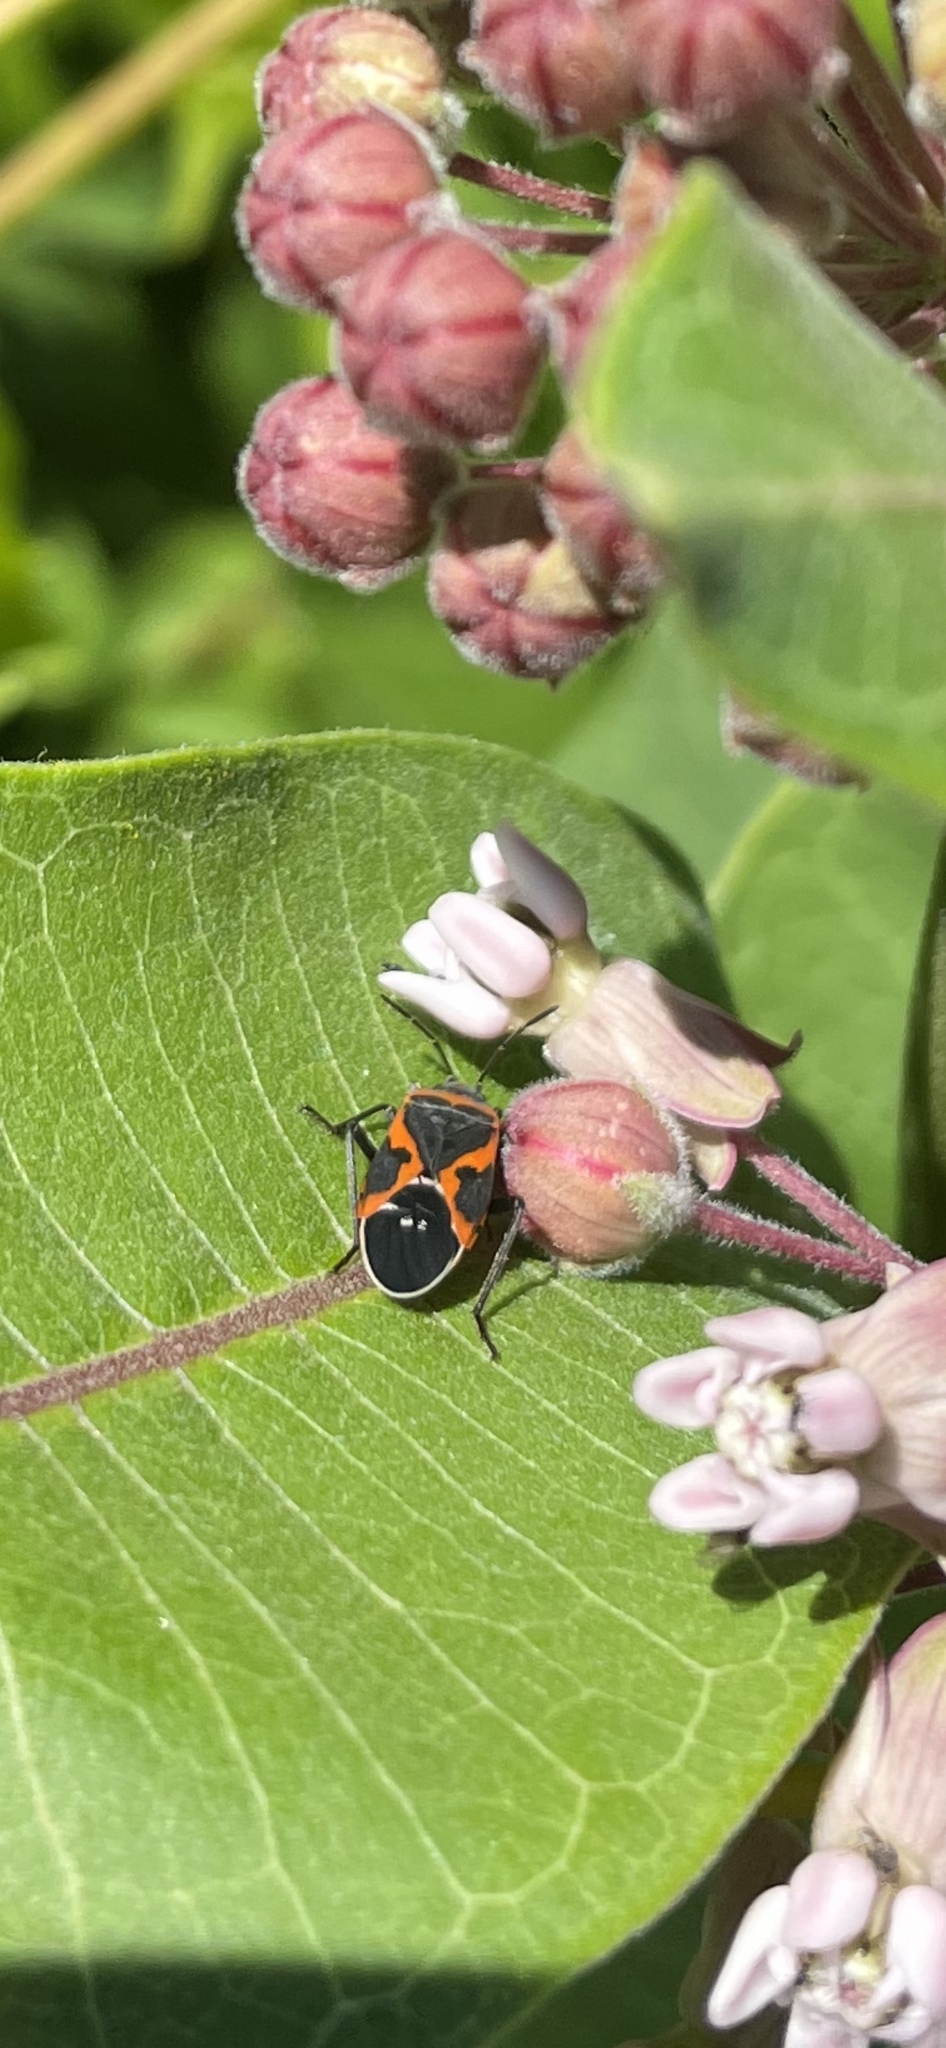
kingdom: Animalia
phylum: Arthropoda
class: Insecta
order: Hemiptera
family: Lygaeidae
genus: Lygaeus
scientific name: Lygaeus kalmii
